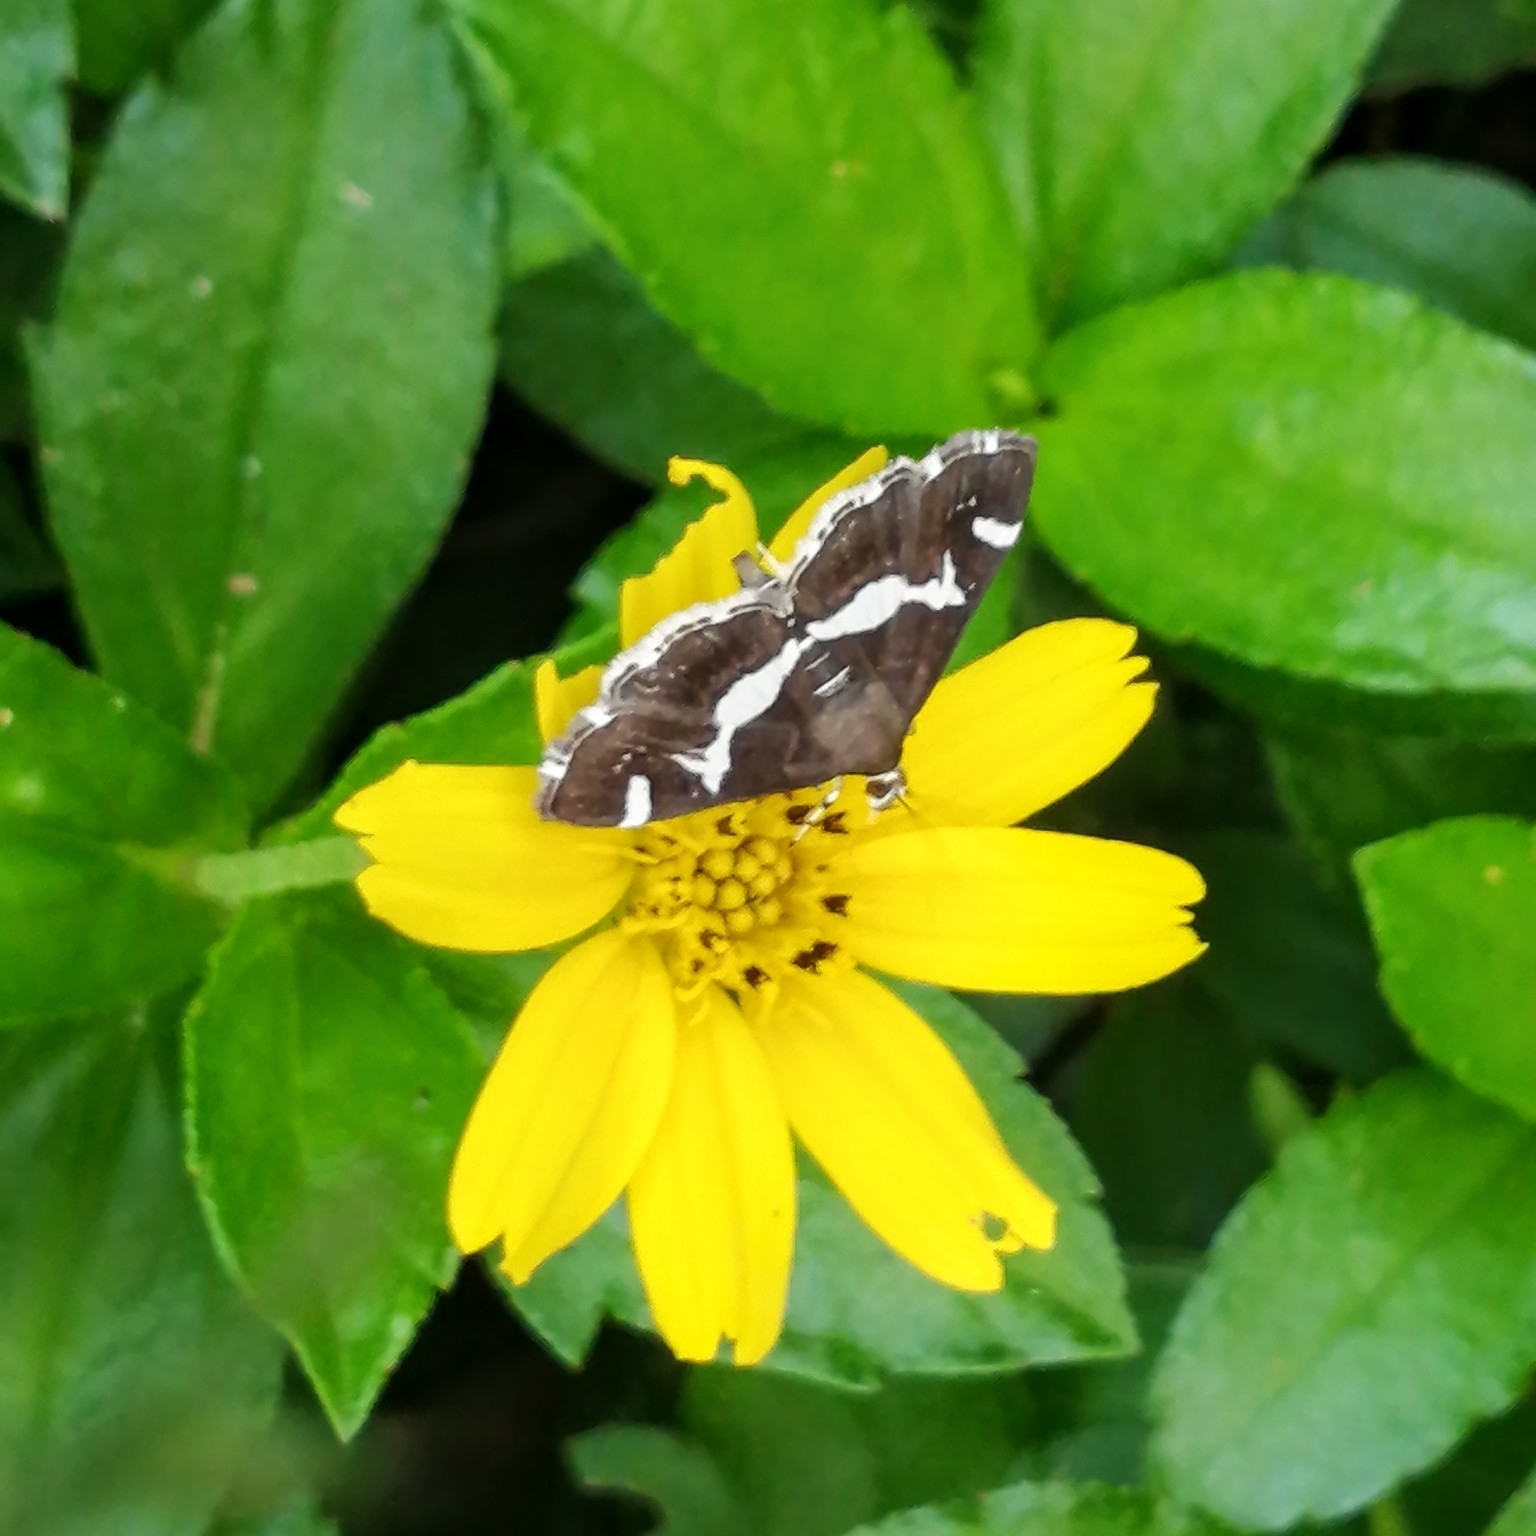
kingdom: Animalia
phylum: Arthropoda
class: Insecta
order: Lepidoptera
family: Crambidae
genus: Spoladea
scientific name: Spoladea recurvalis
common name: Beet webworm moth
